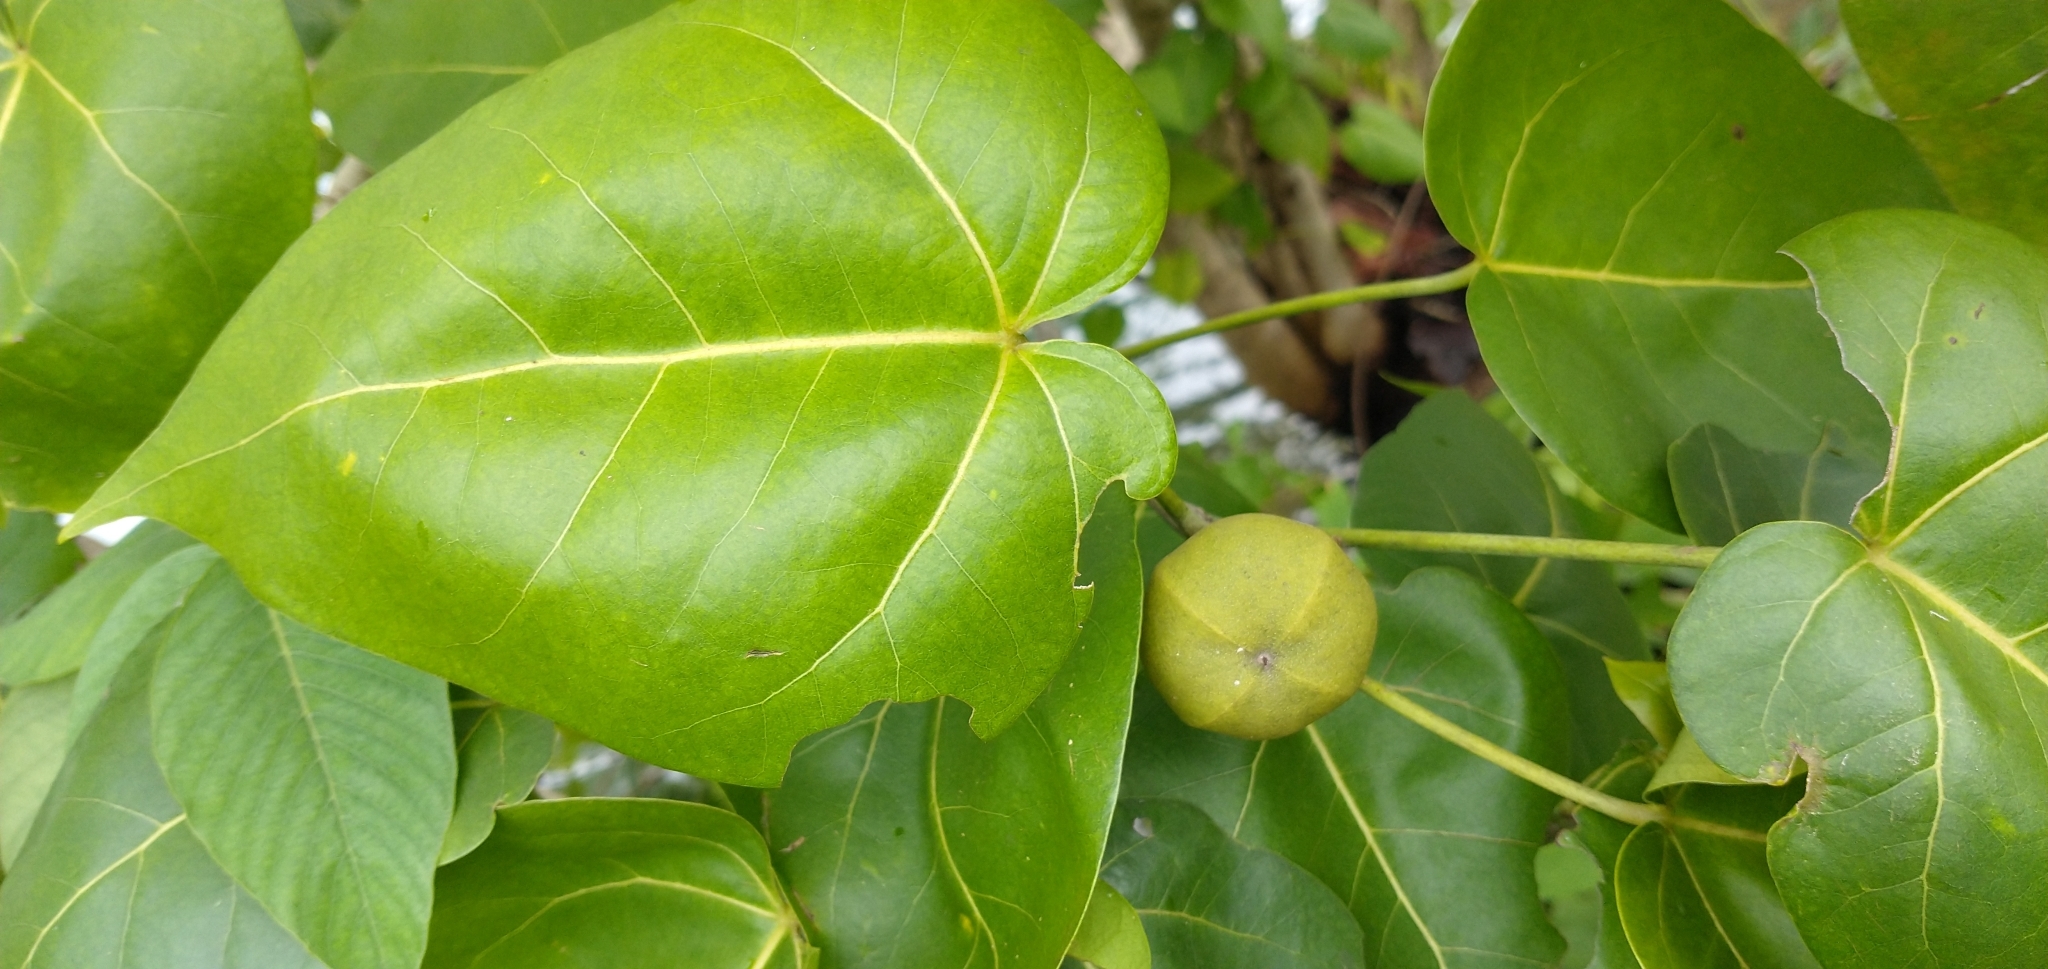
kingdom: Plantae
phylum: Tracheophyta
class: Magnoliopsida
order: Malvales
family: Malvaceae
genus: Thespesia
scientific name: Thespesia populnea
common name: Seaside mahoe
